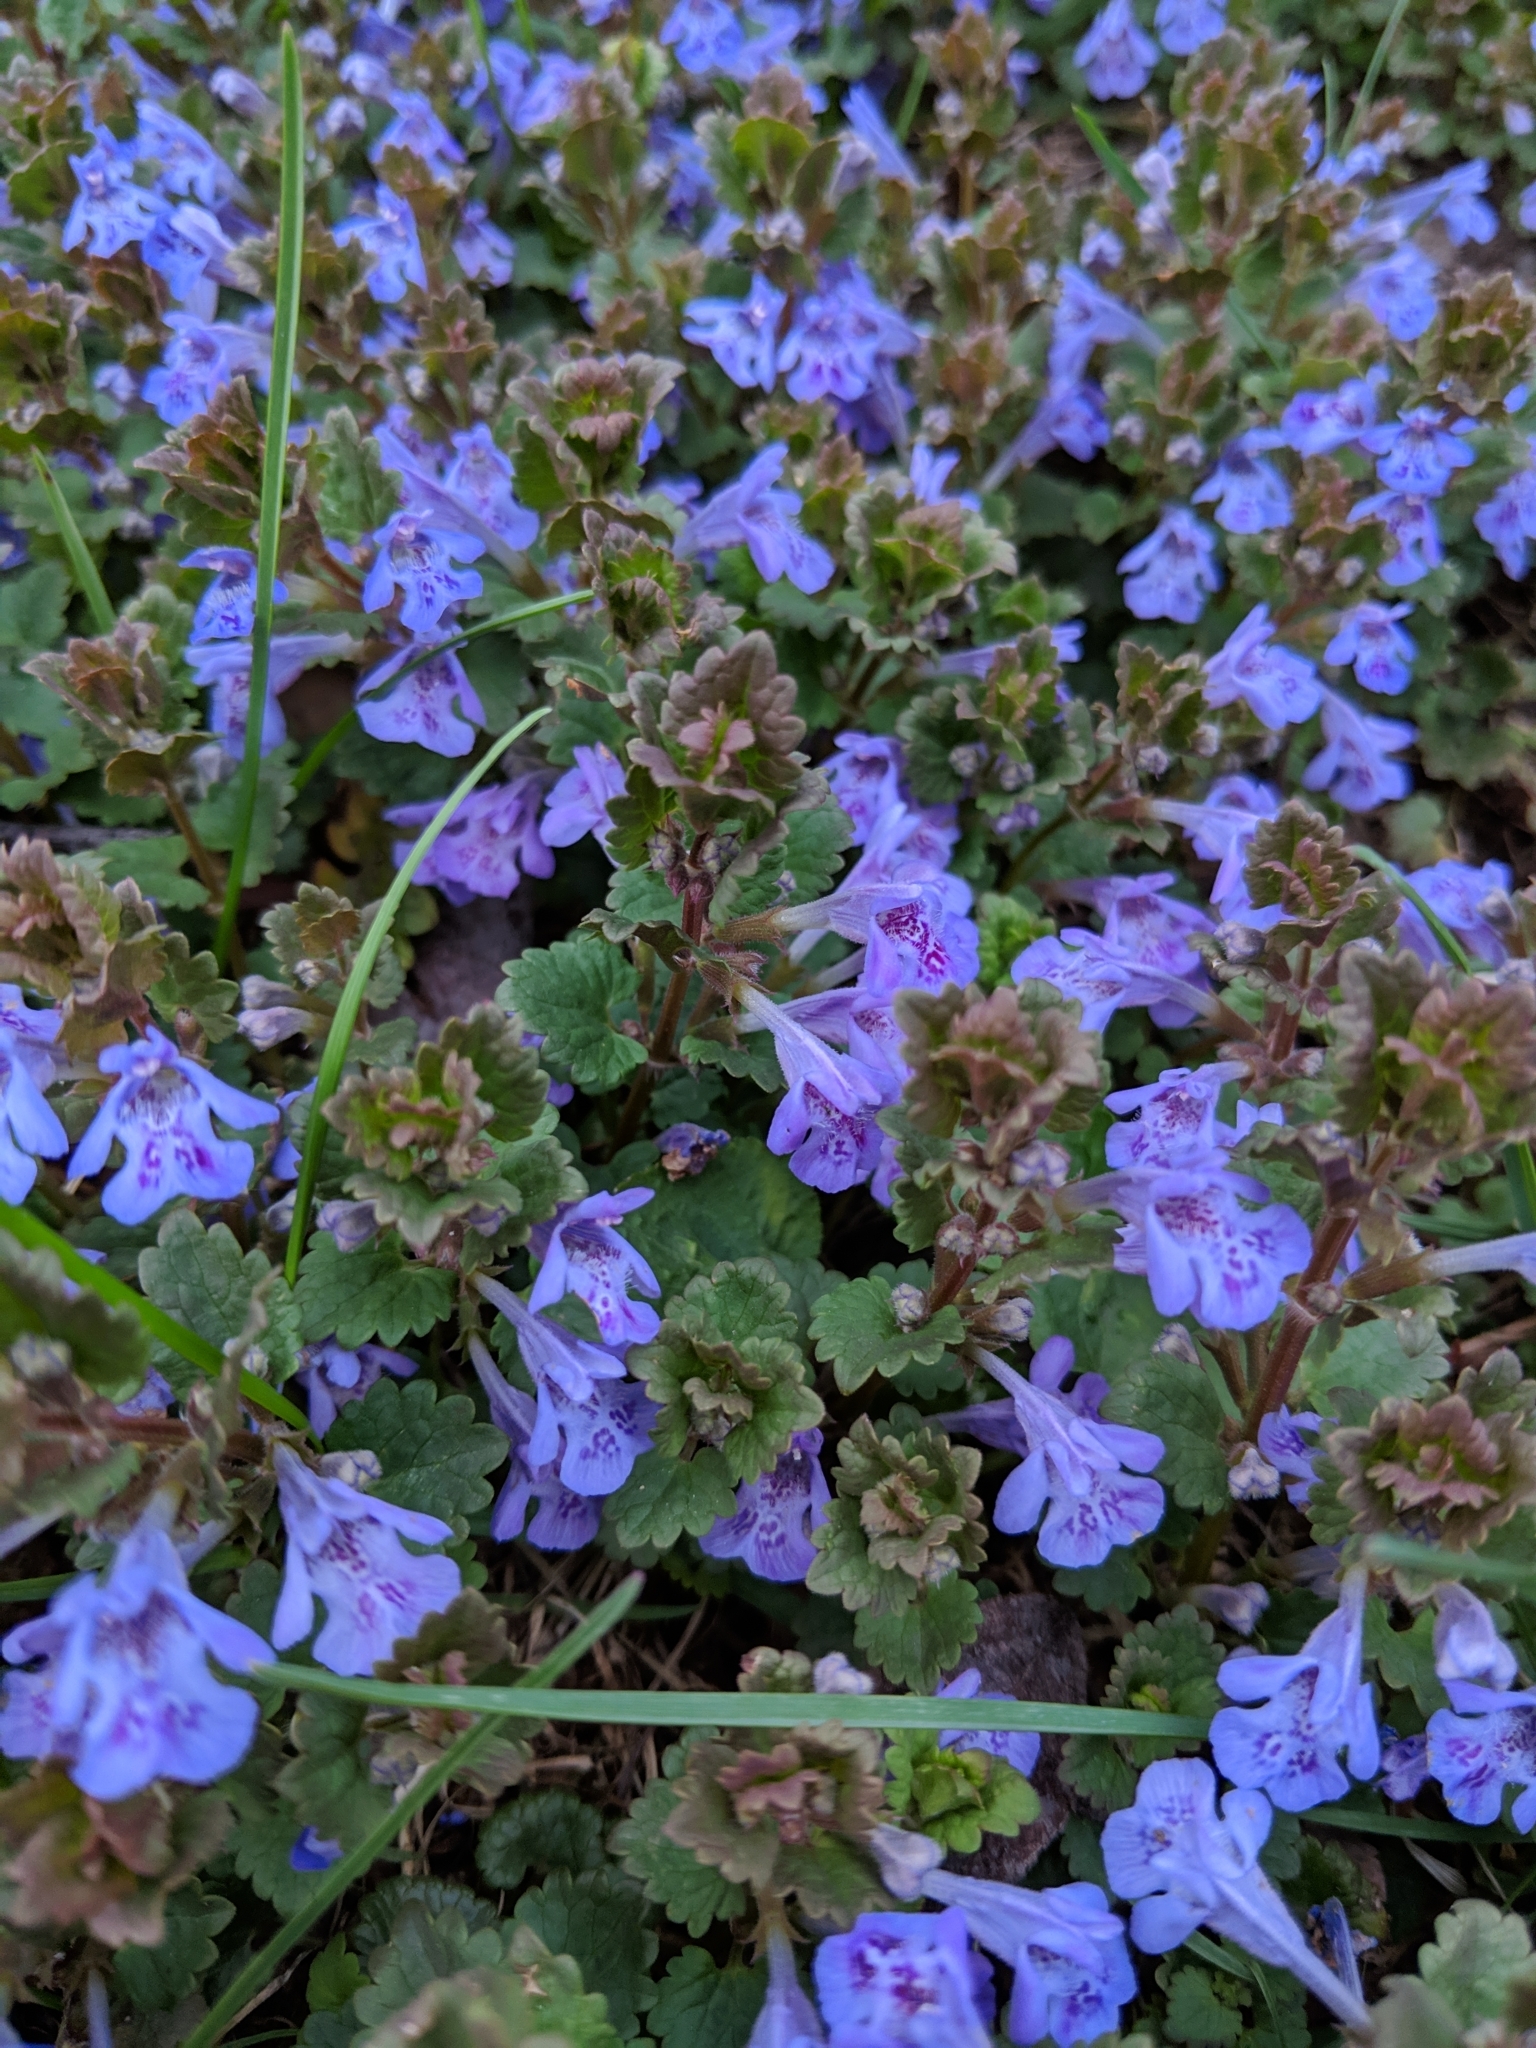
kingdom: Plantae
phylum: Tracheophyta
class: Magnoliopsida
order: Lamiales
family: Lamiaceae
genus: Glechoma
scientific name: Glechoma hederacea
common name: Ground ivy
